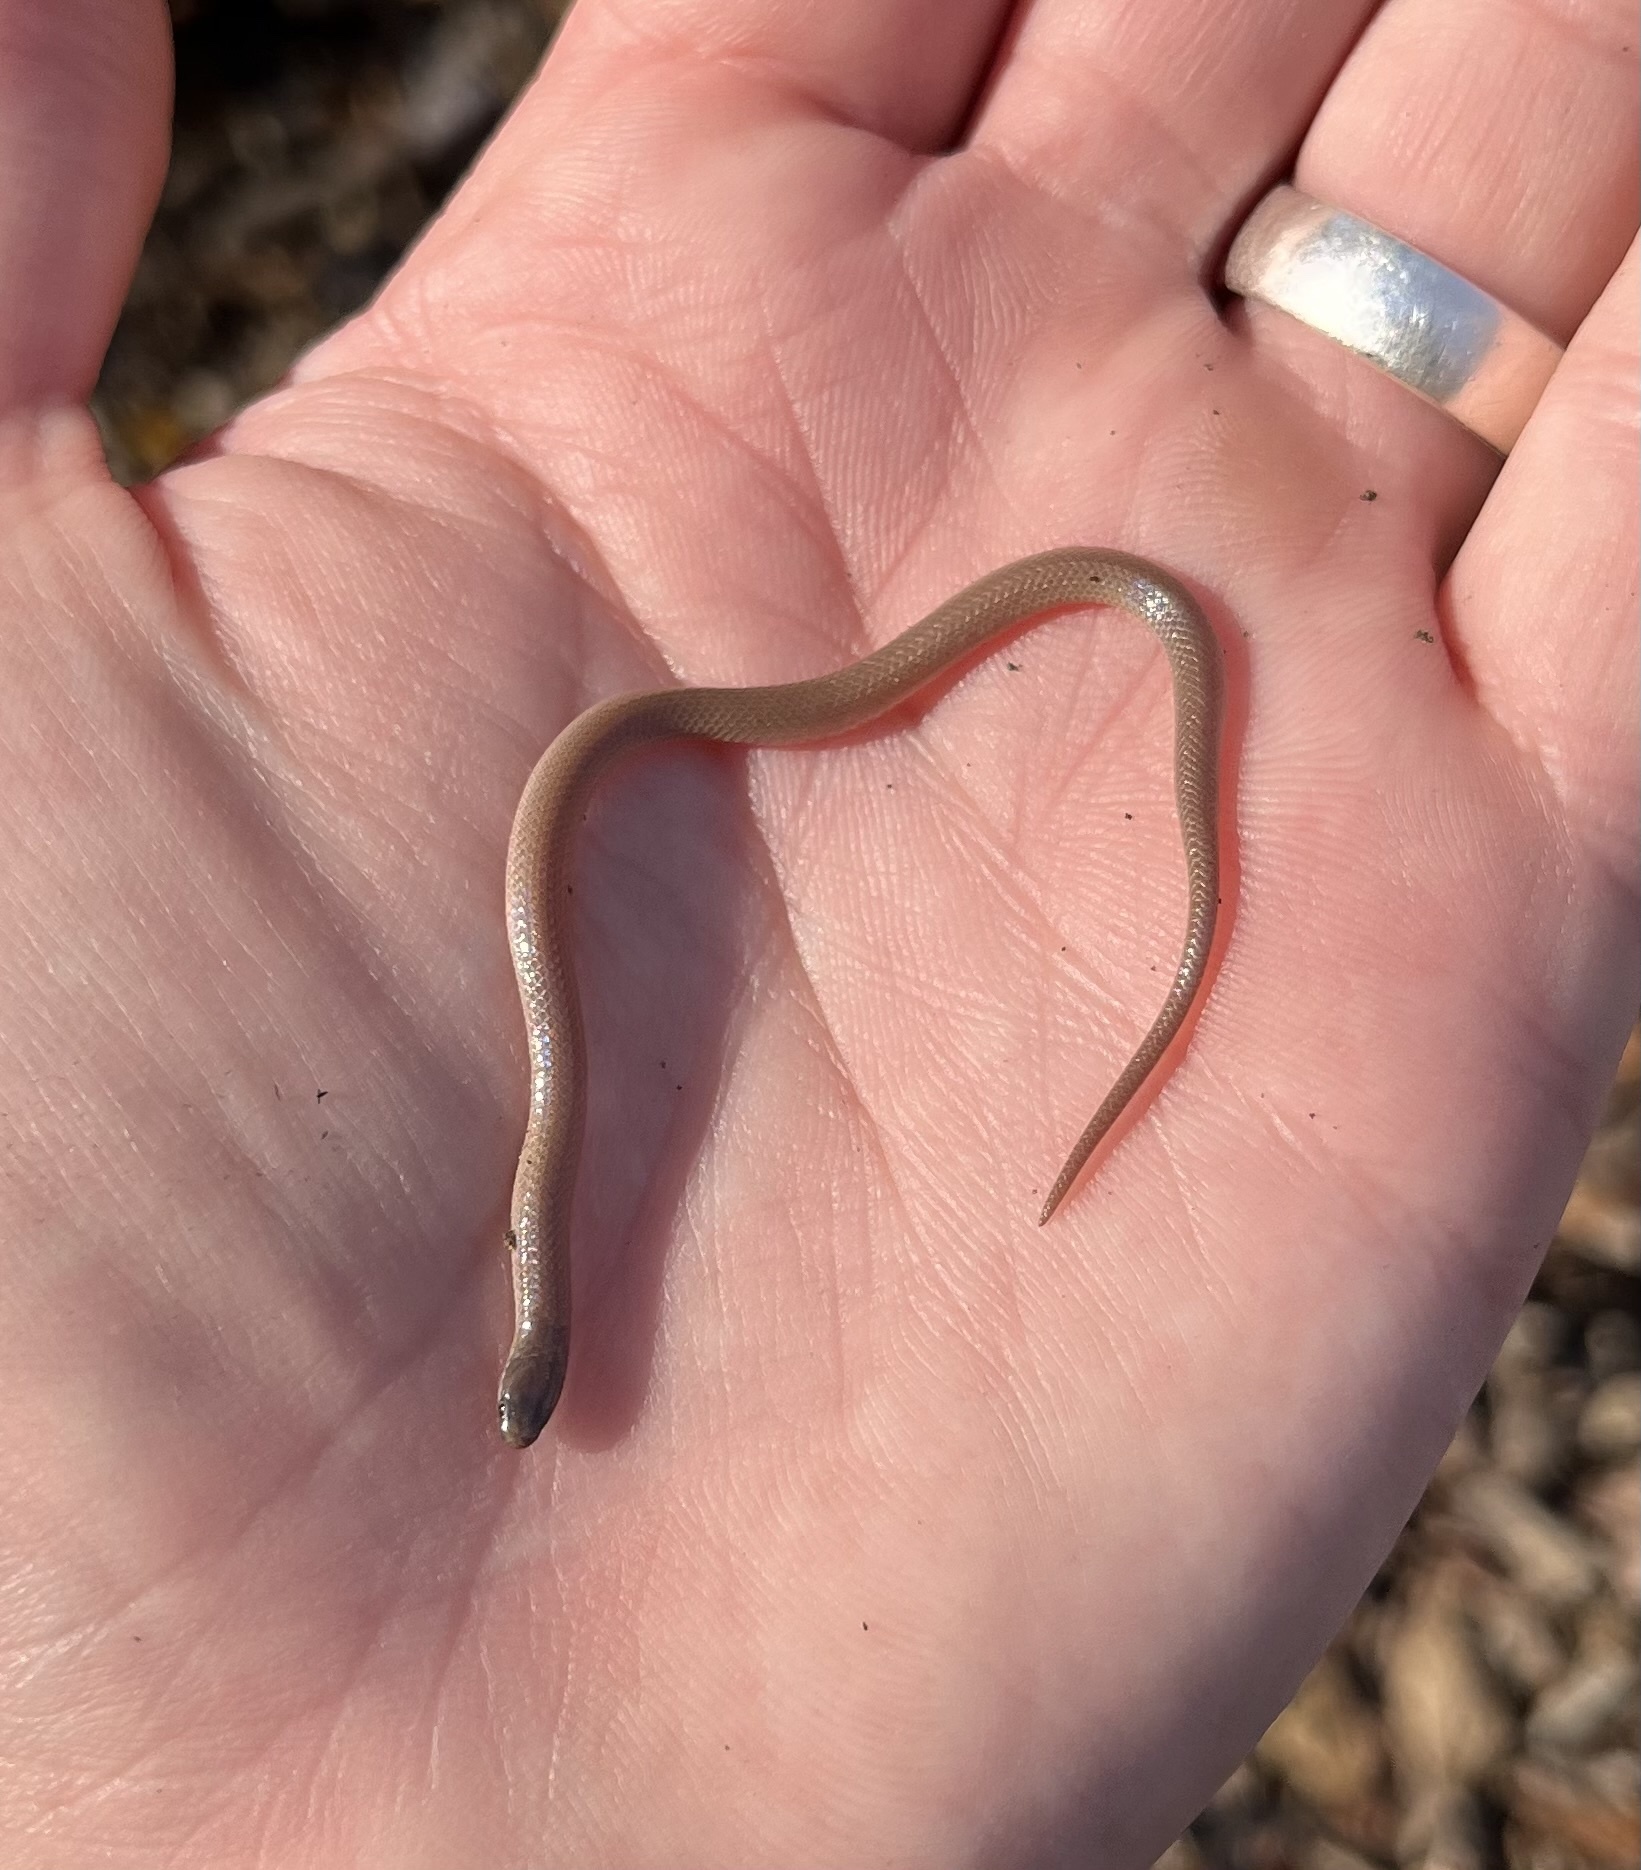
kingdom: Animalia
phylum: Chordata
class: Squamata
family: Colubridae
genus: Tantilla
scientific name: Tantilla gracilis
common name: Flathead snake
